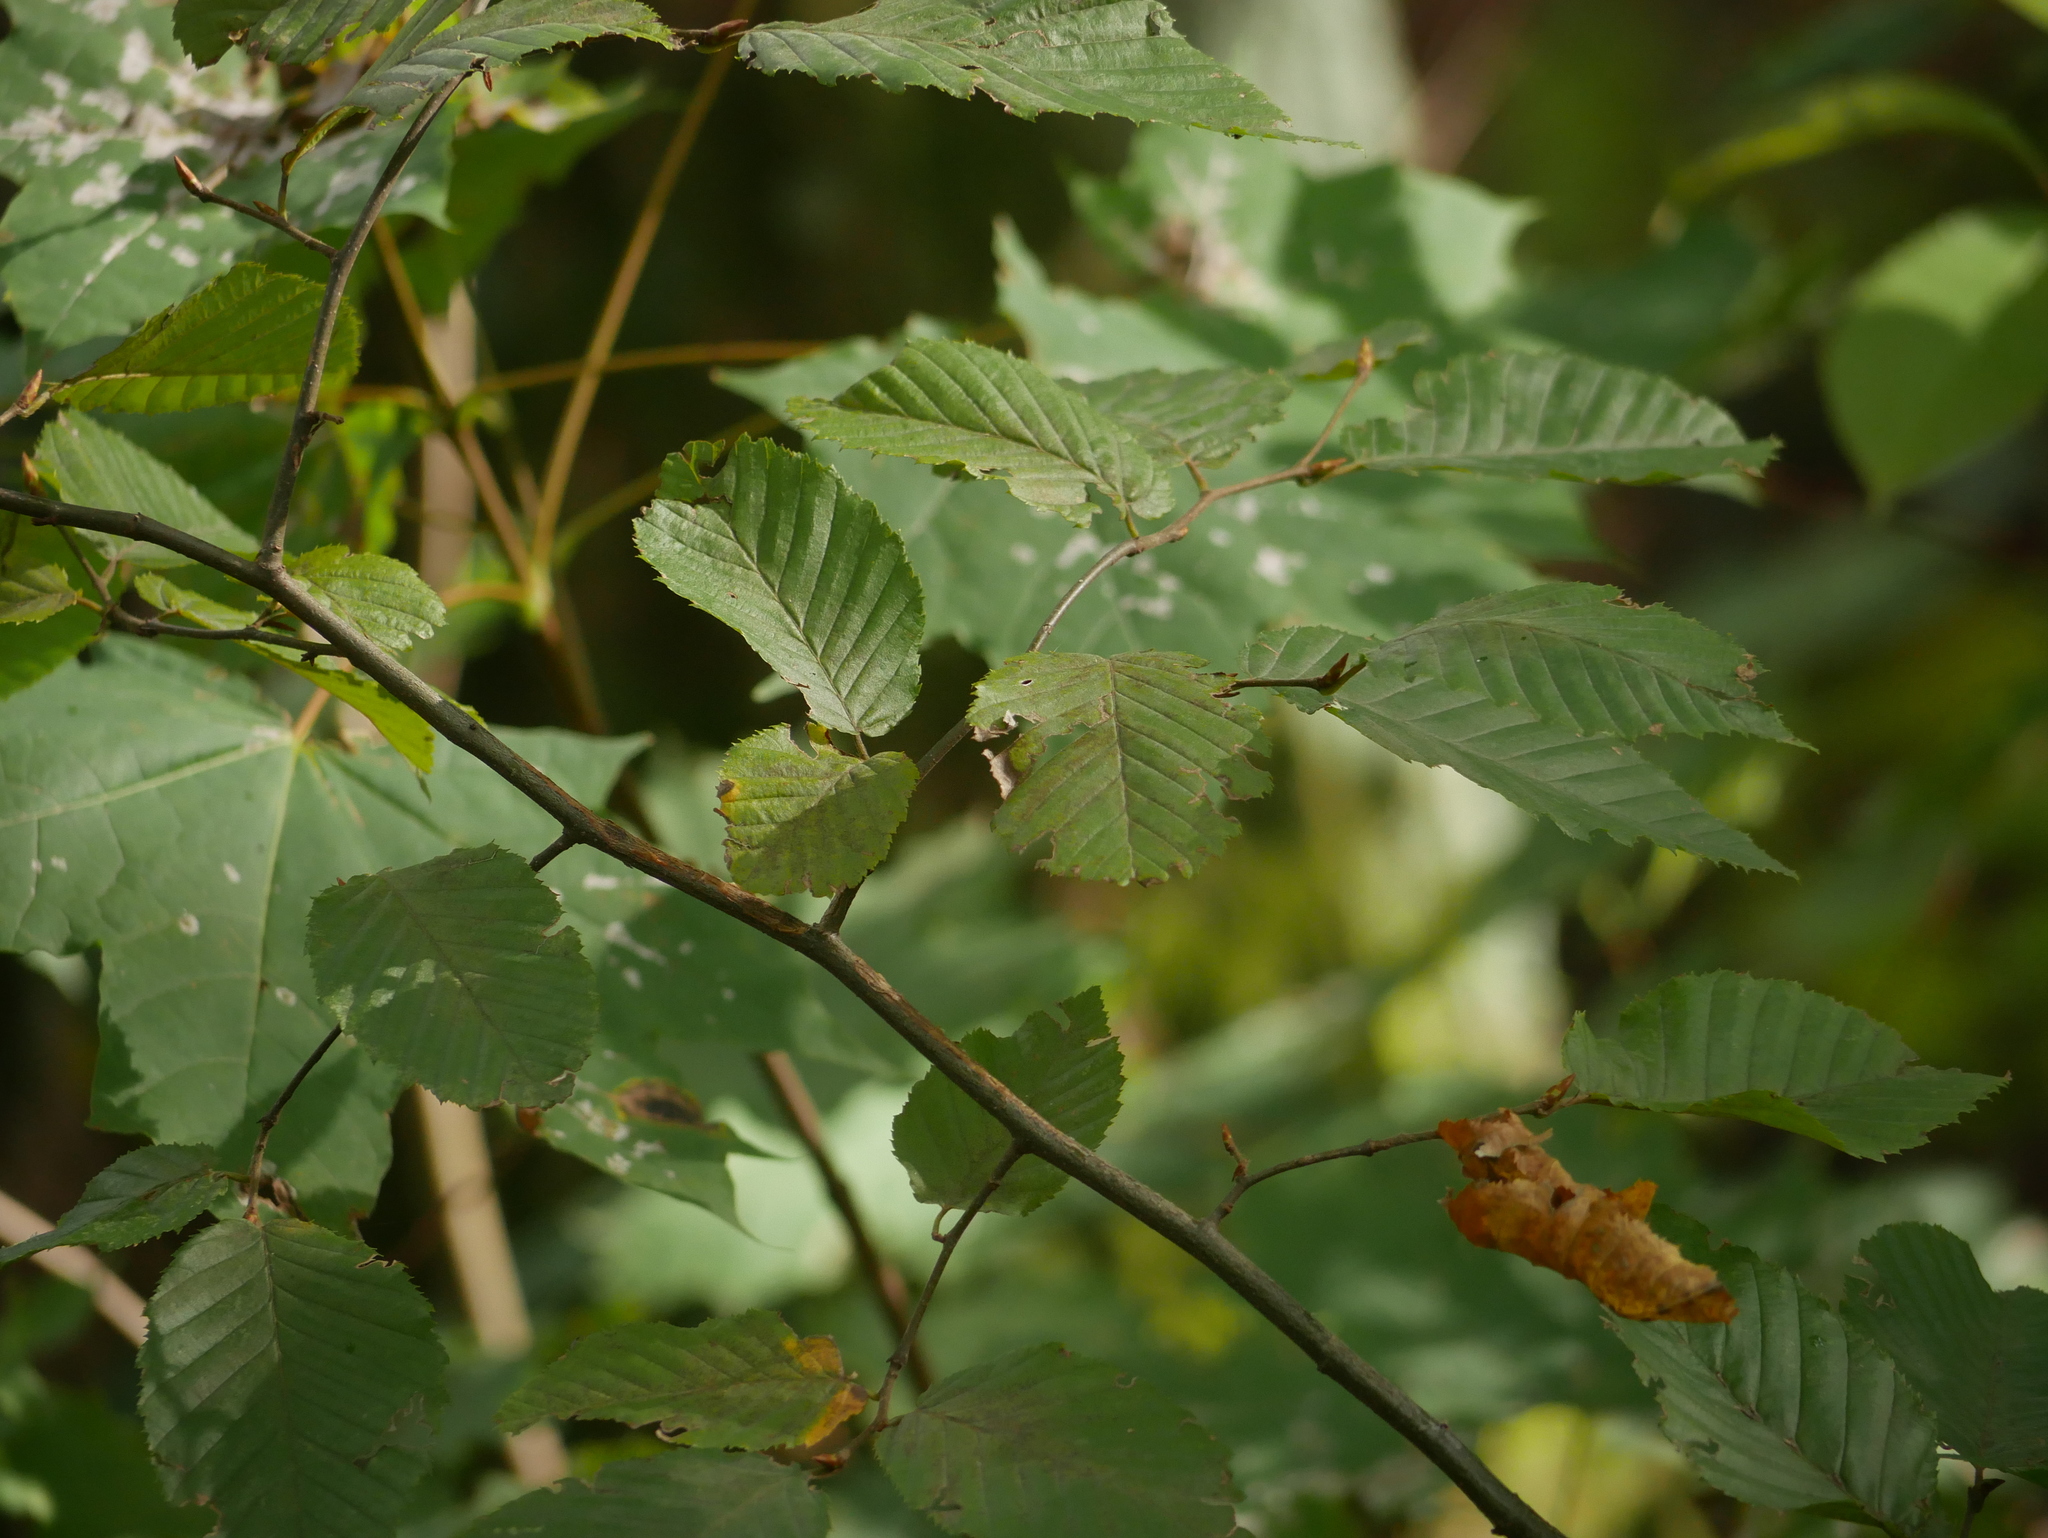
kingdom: Plantae
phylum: Tracheophyta
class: Magnoliopsida
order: Fagales
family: Betulaceae
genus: Carpinus
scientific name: Carpinus betulus
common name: Hornbeam
